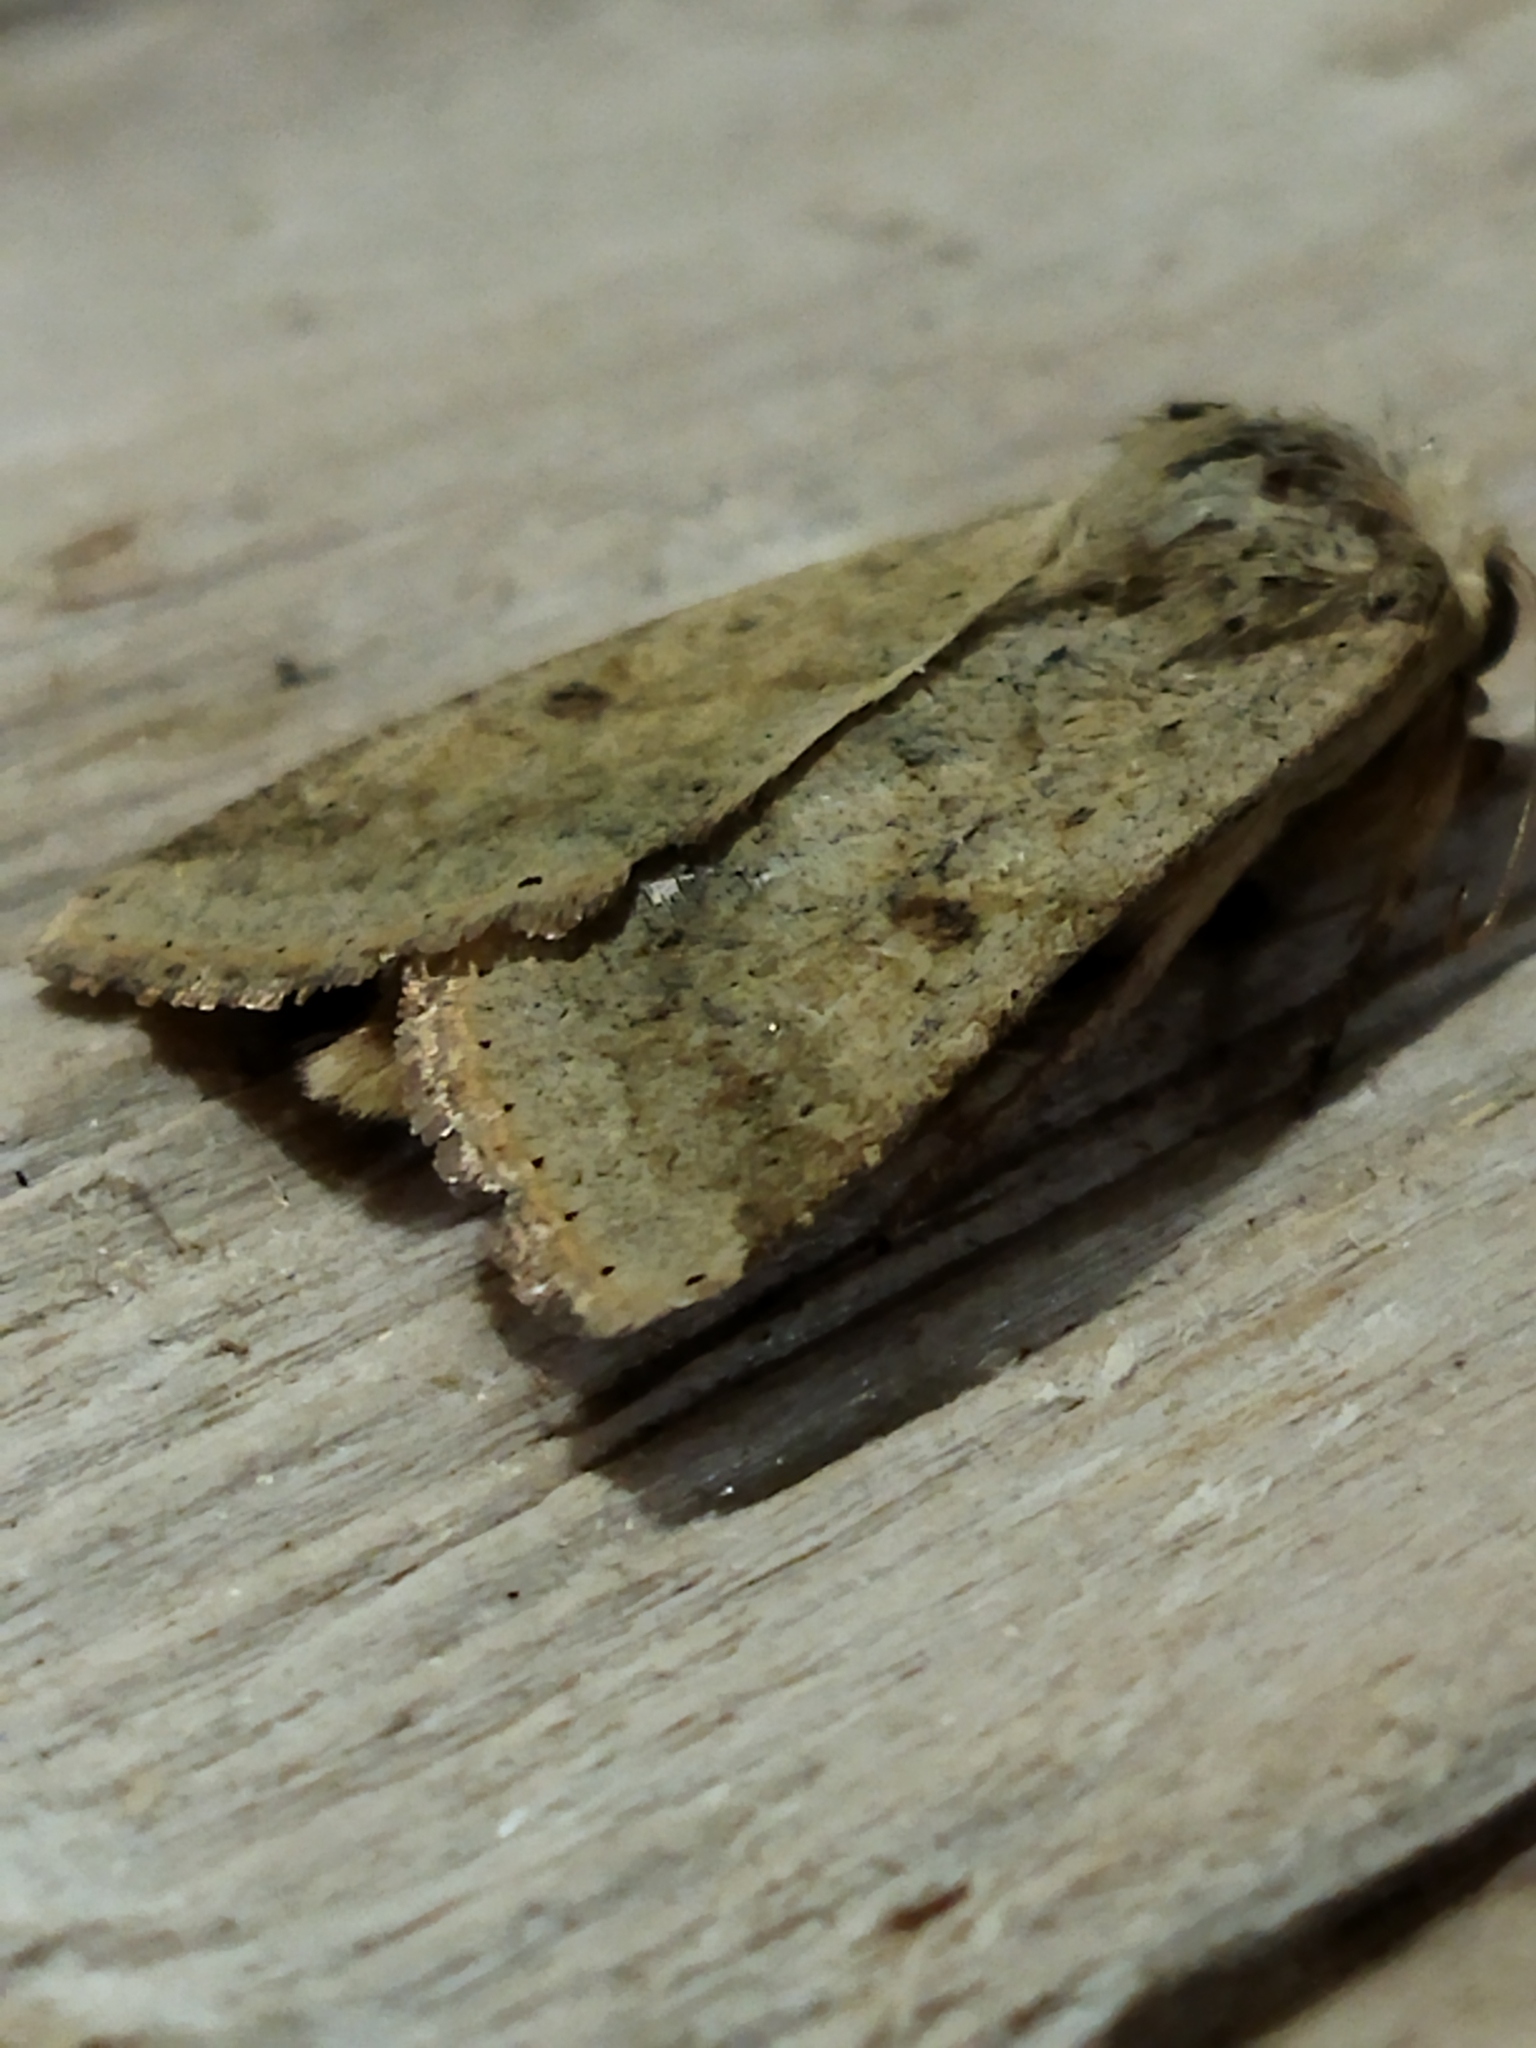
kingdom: Animalia
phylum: Arthropoda
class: Insecta
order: Lepidoptera
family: Noctuidae
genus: Helicoverpa
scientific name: Helicoverpa armigera
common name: Cotton bollworm
